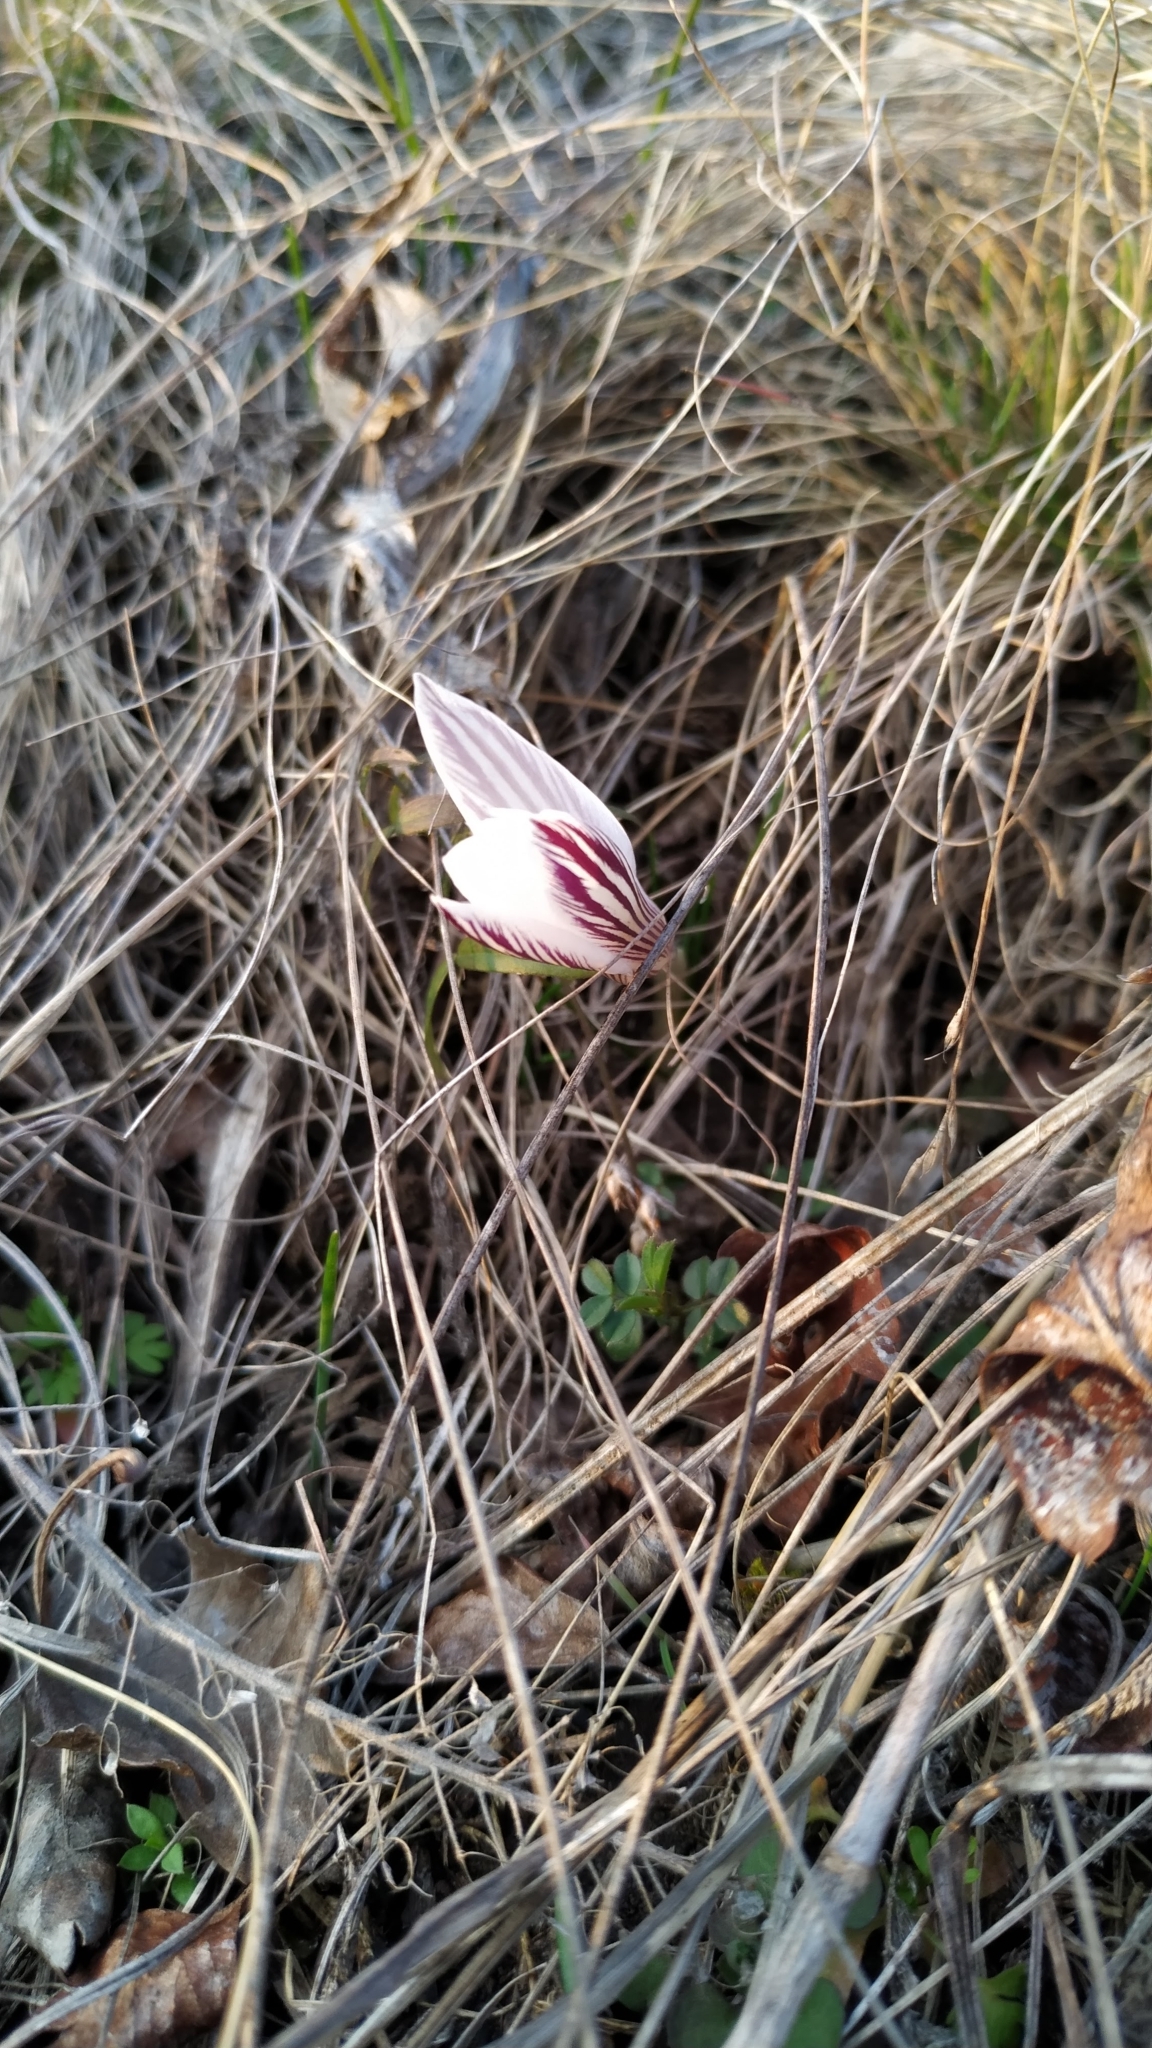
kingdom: Plantae
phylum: Tracheophyta
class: Liliopsida
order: Asparagales
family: Iridaceae
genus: Crocus
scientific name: Crocus reticulatus
